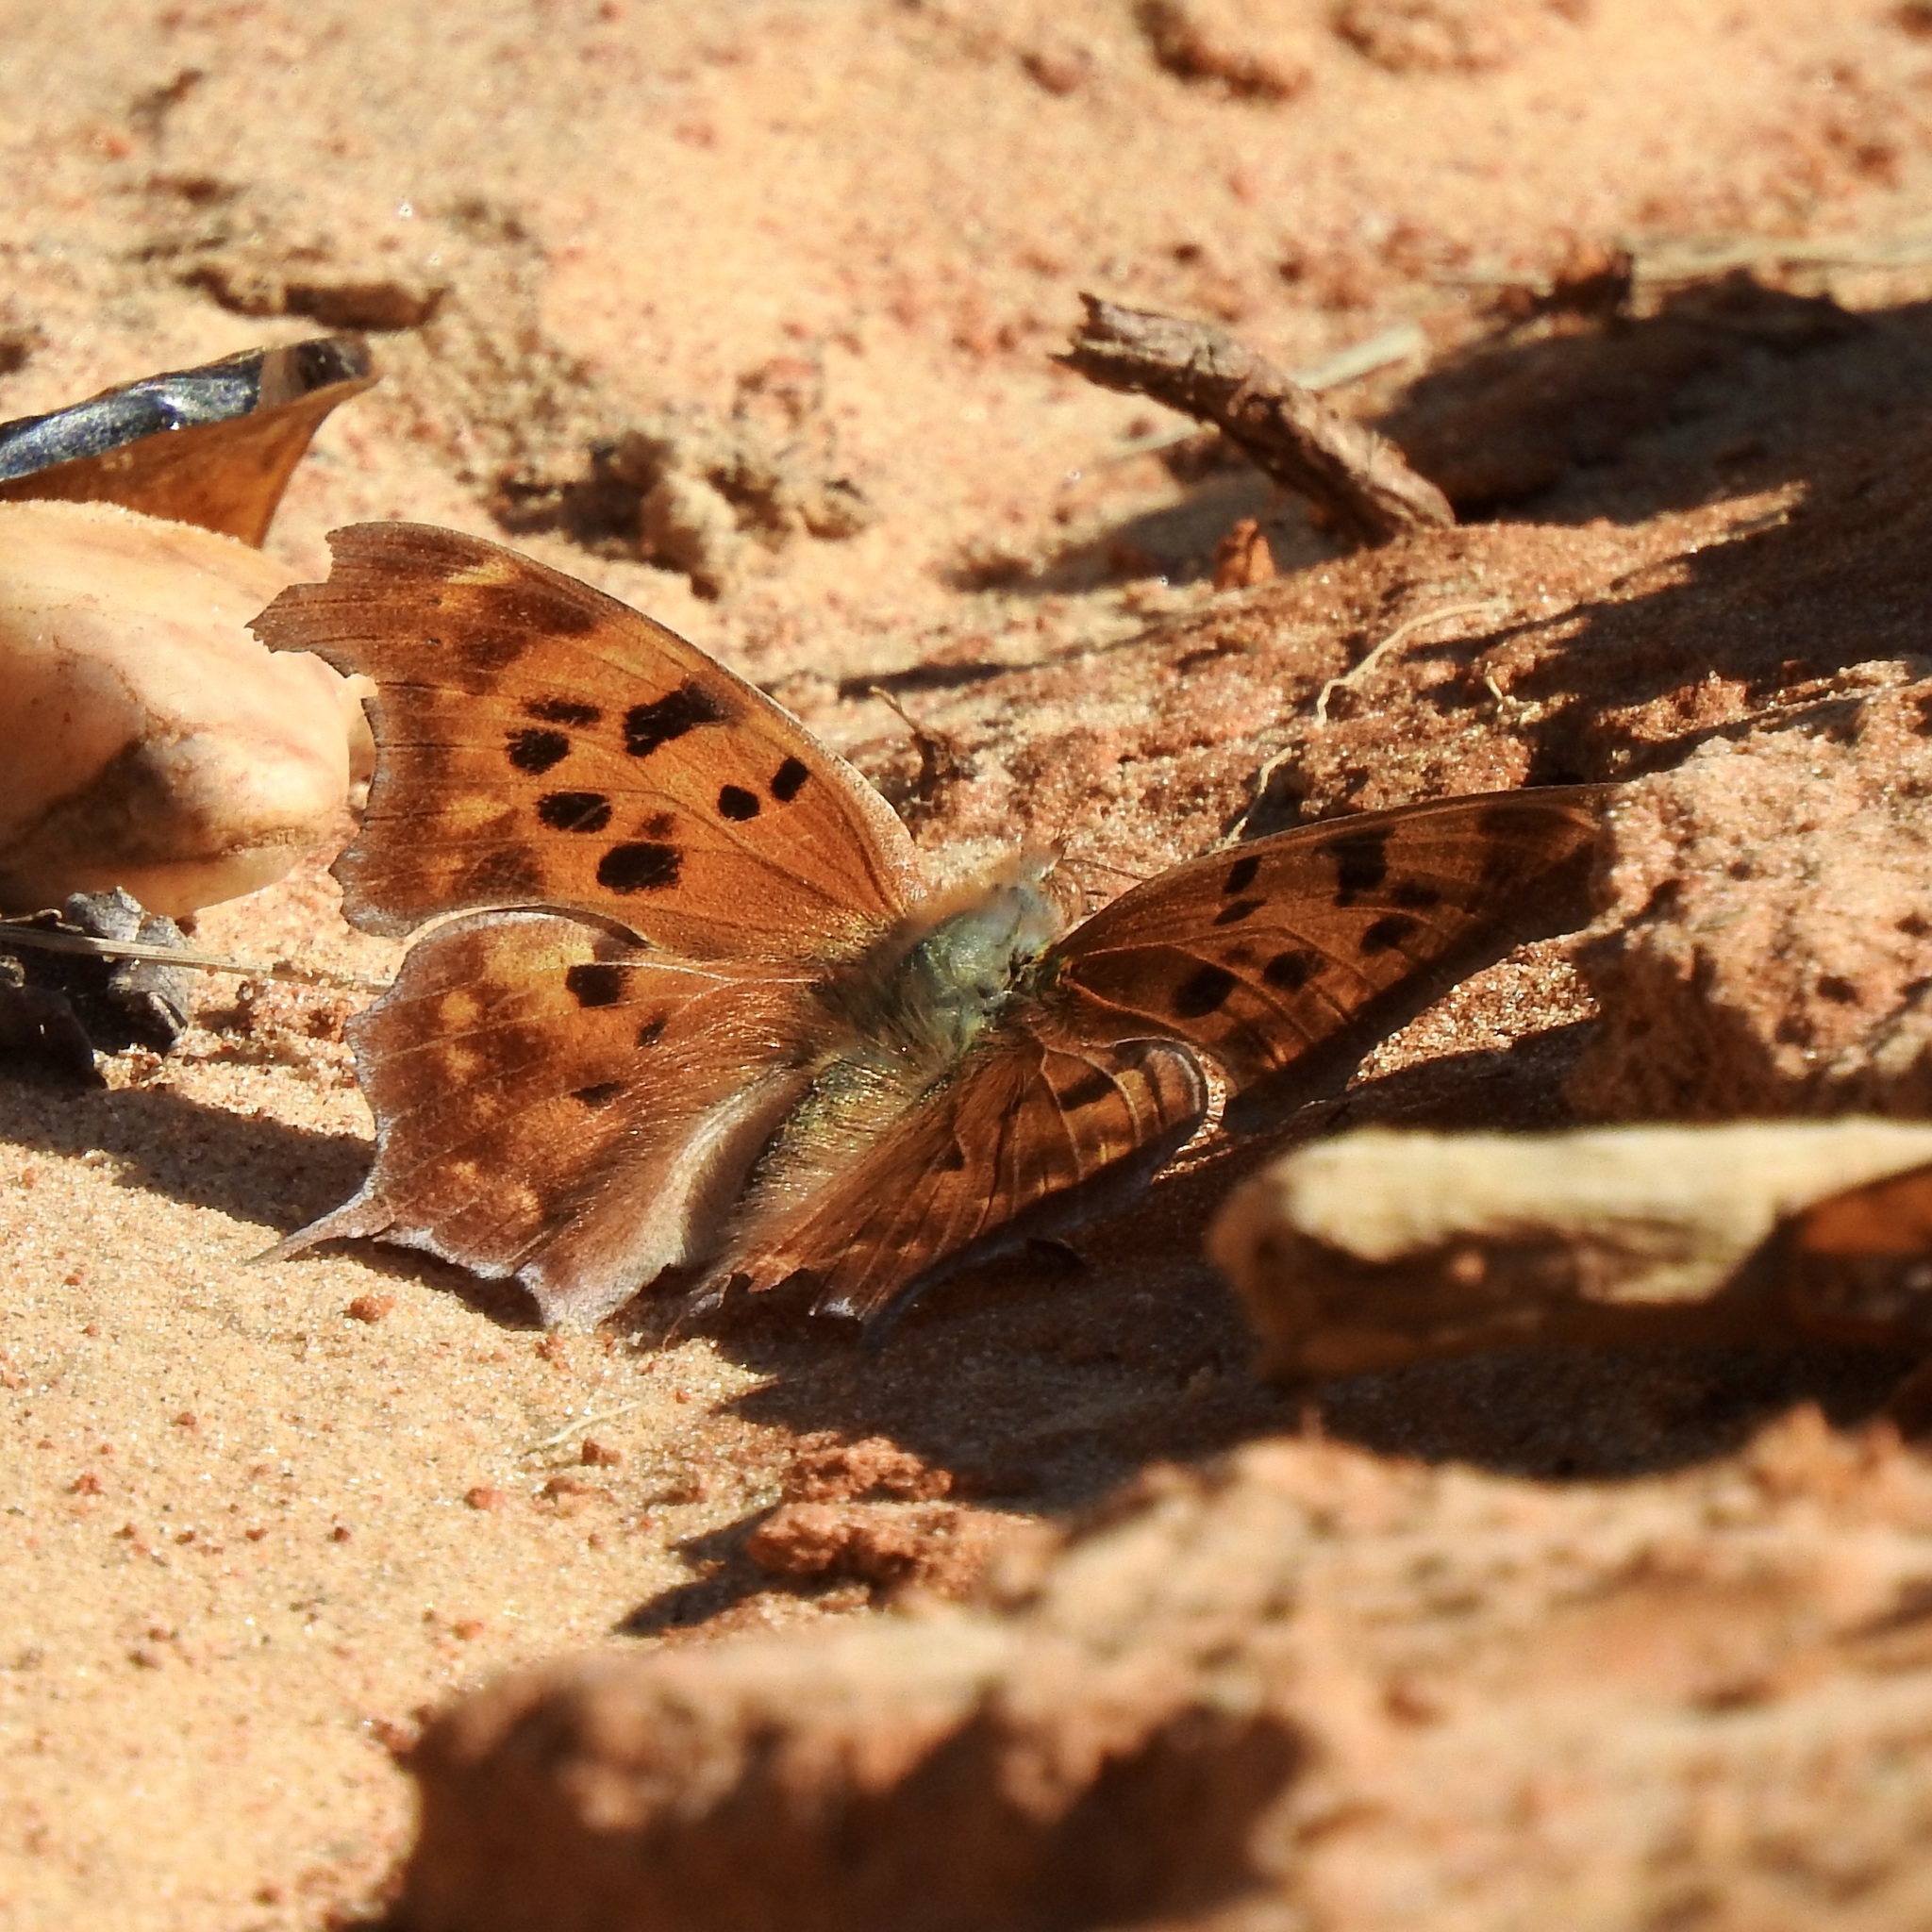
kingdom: Animalia
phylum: Arthropoda
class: Insecta
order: Lepidoptera
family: Nymphalidae
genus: Polygonia
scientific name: Polygonia interrogationis
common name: Question mark
